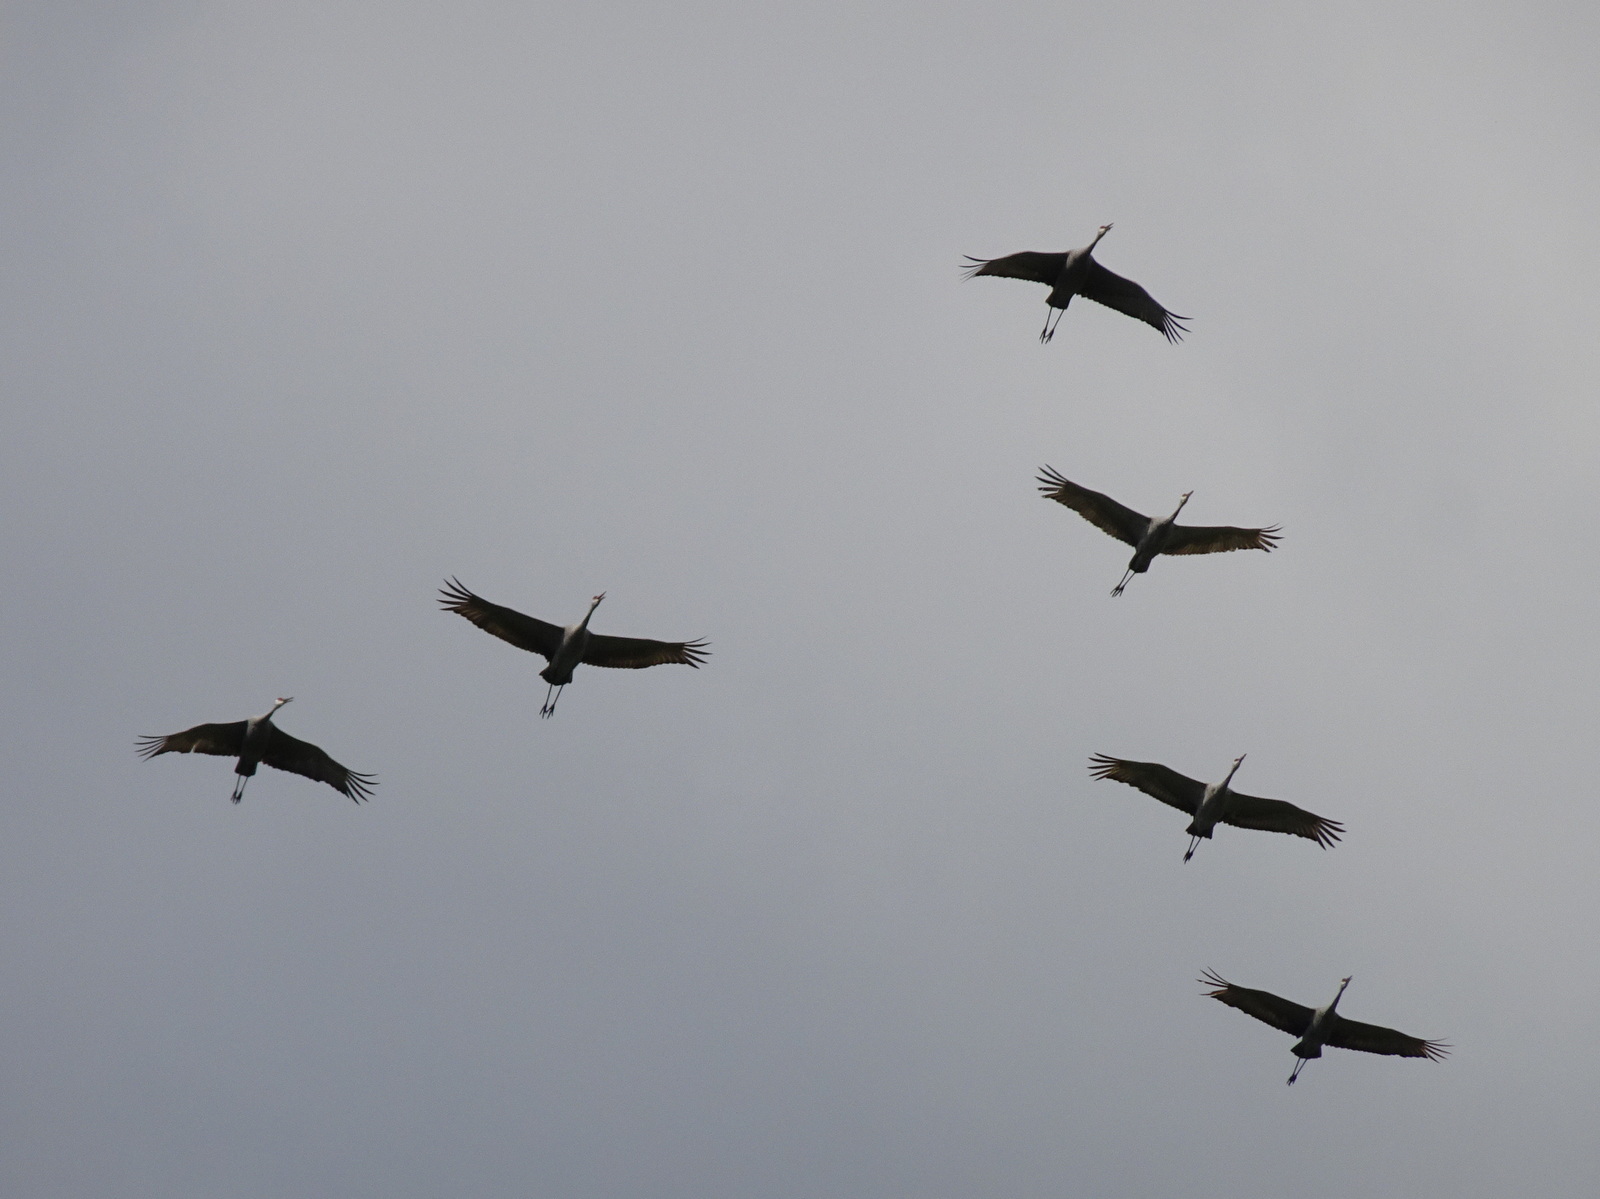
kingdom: Animalia
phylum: Chordata
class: Aves
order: Gruiformes
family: Gruidae
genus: Grus
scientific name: Grus canadensis
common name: Sandhill crane
